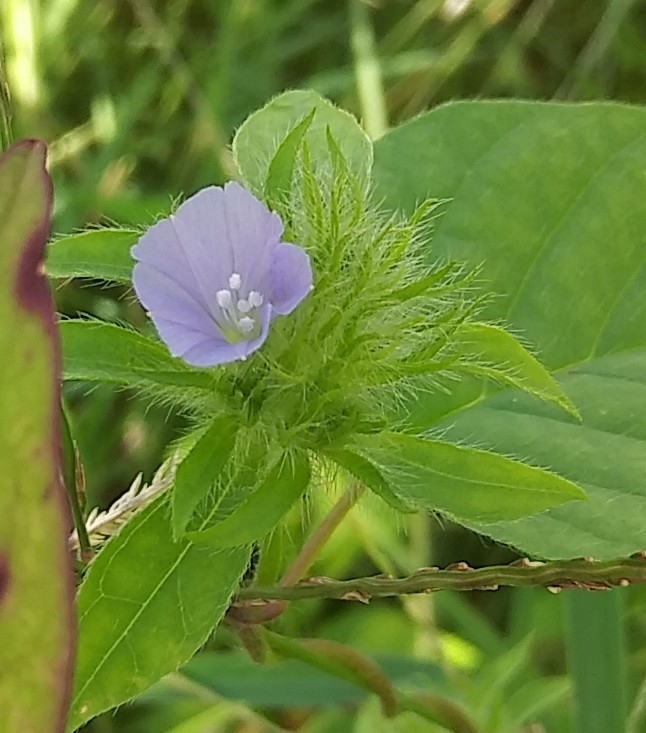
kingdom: Plantae
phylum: Tracheophyta
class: Magnoliopsida
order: Solanales
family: Convolvulaceae
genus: Jacquemontia
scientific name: Jacquemontia tamnifolia
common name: Hairy clustervine
